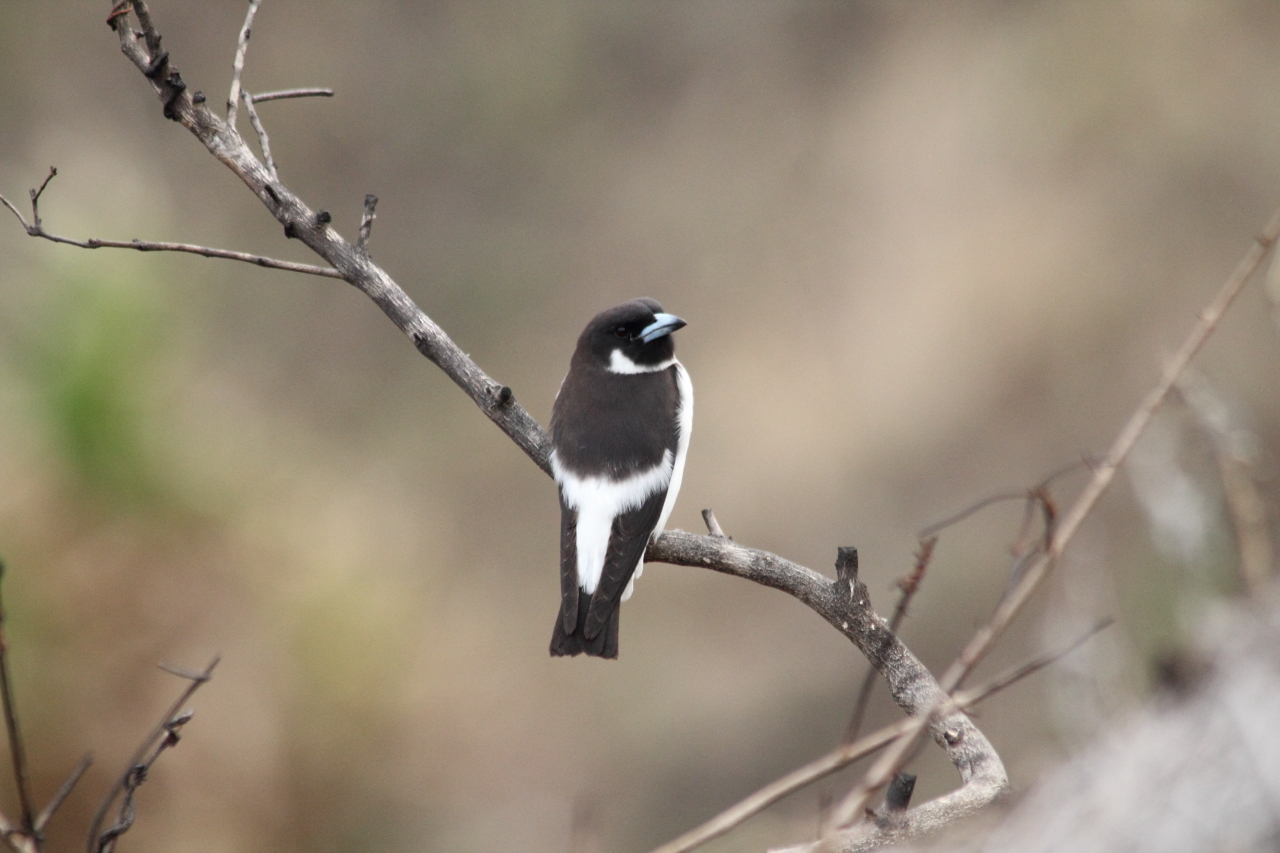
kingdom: Animalia
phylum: Chordata
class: Aves
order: Passeriformes
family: Artamidae
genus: Artamus
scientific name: Artamus mentalis
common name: Fiji woodswallow
